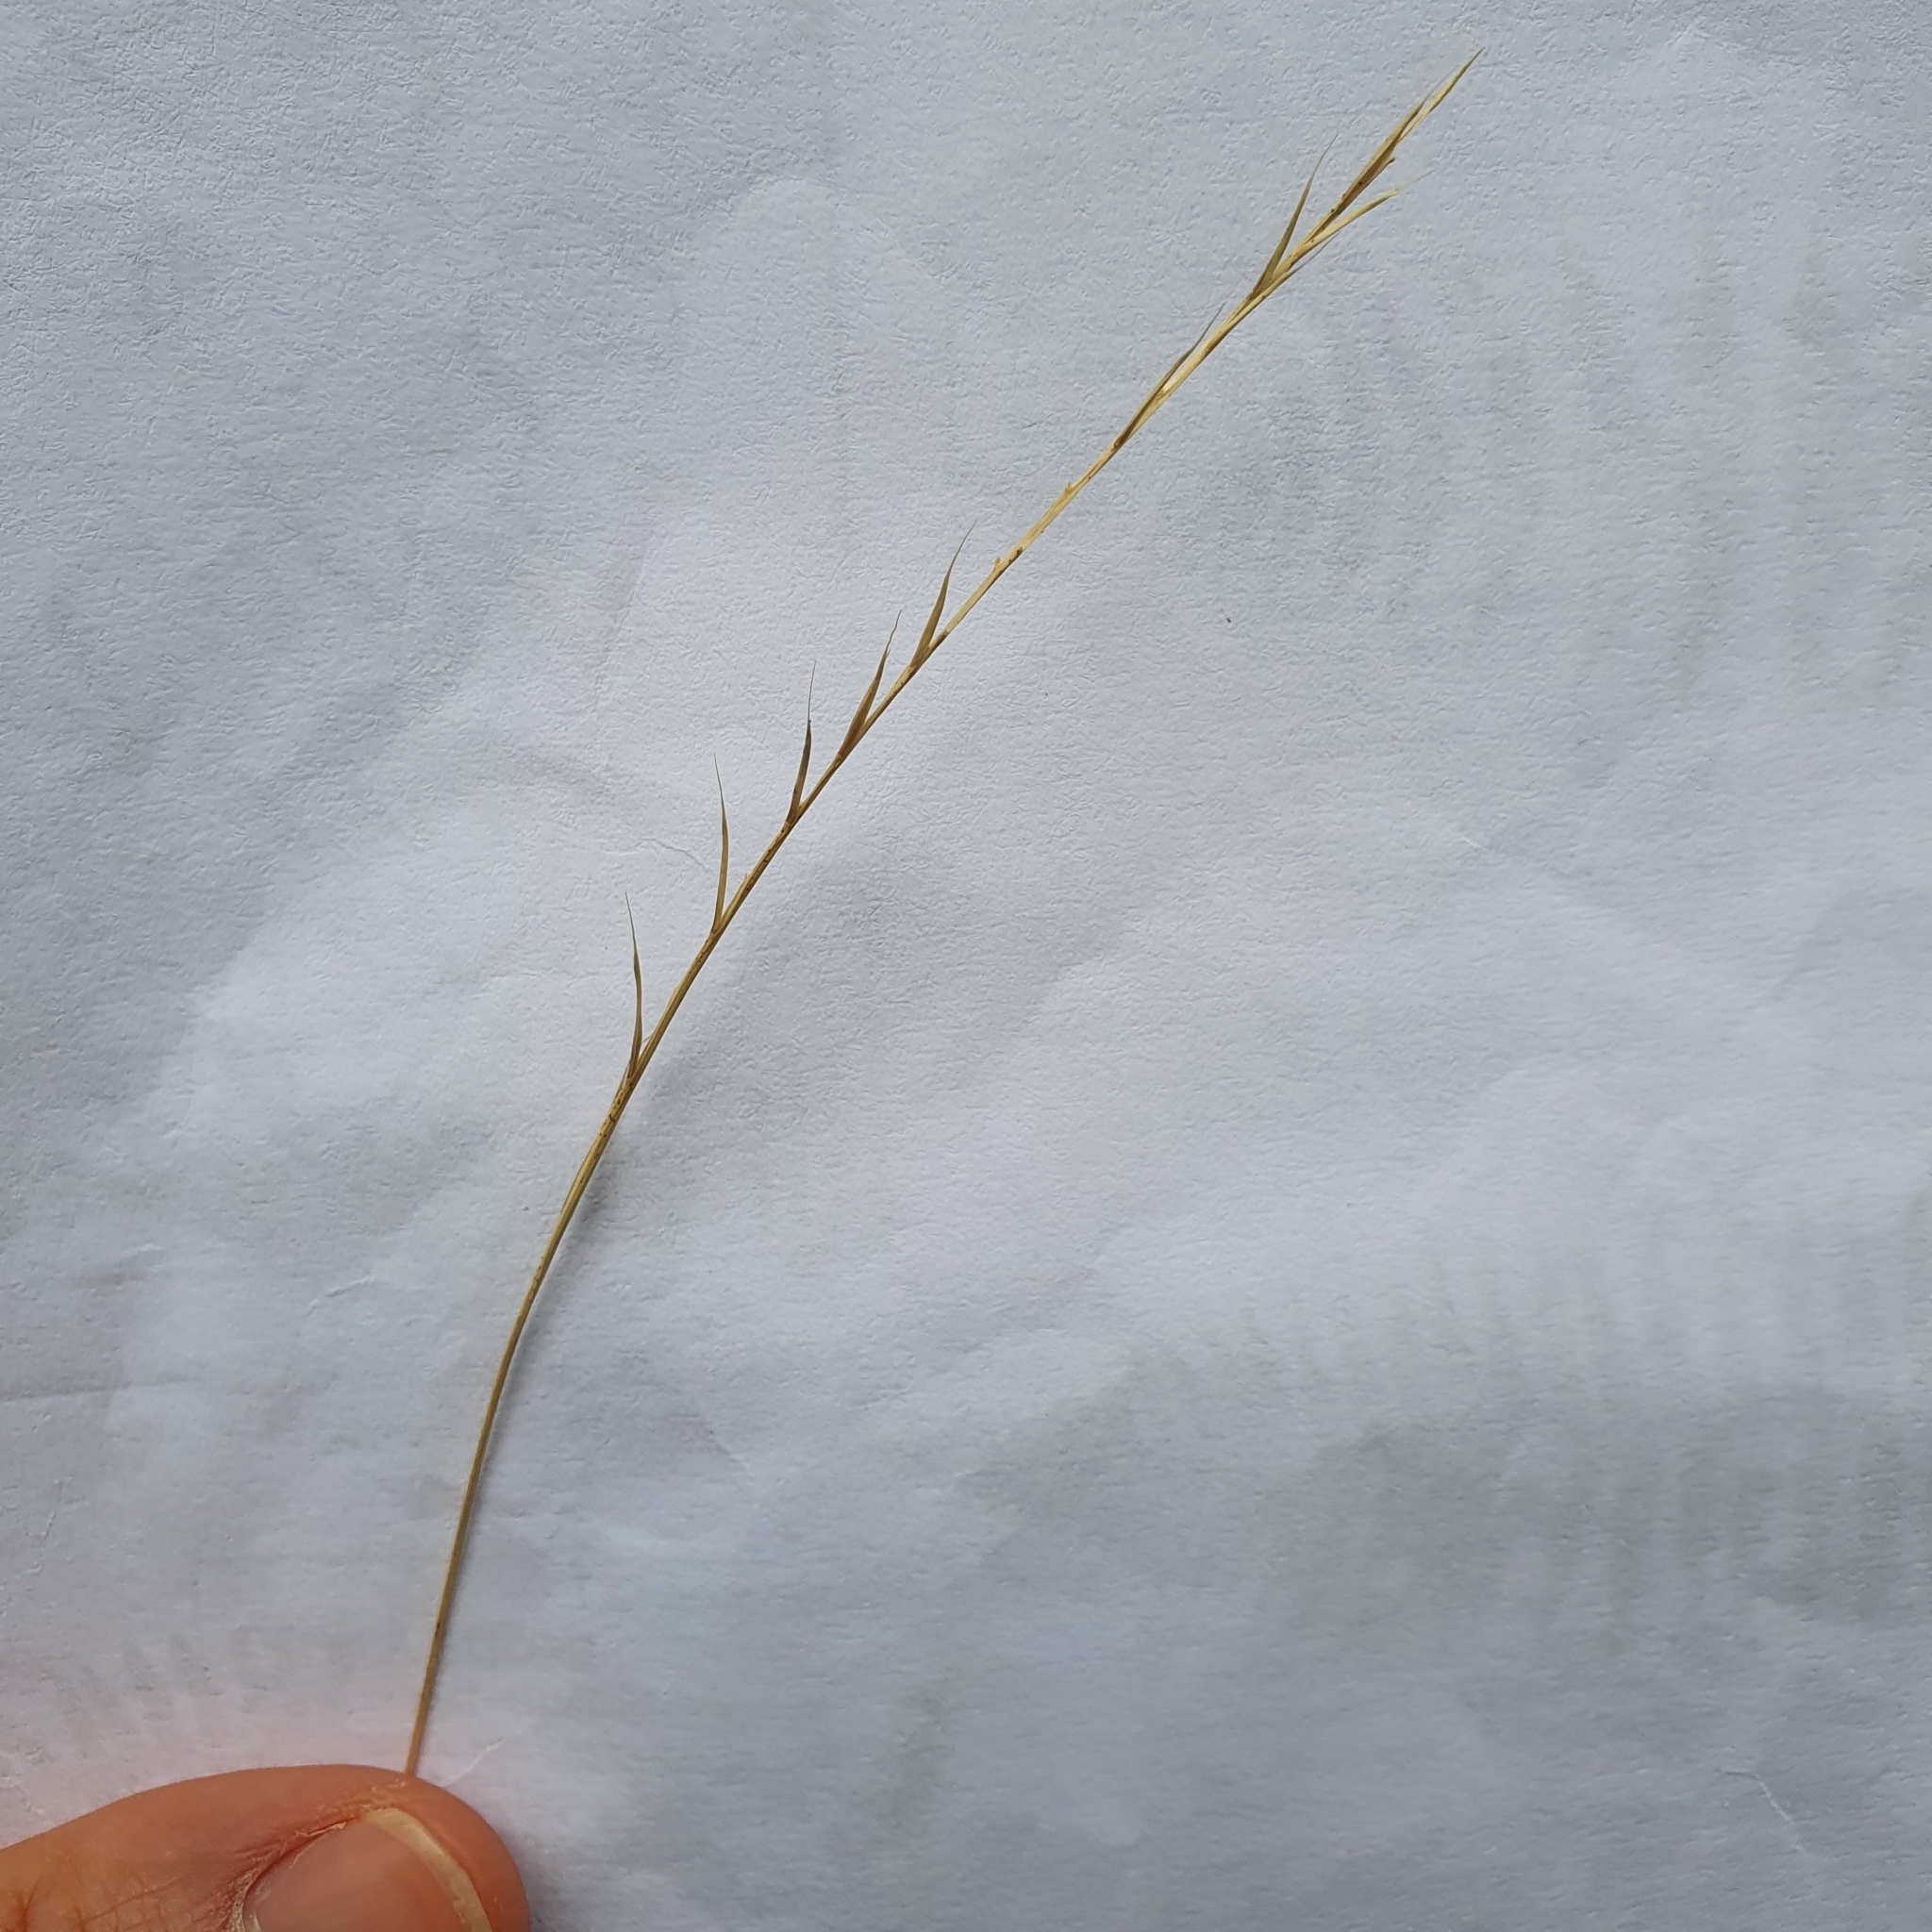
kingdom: Plantae
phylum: Tracheophyta
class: Liliopsida
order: Poales
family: Poaceae
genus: Nardus
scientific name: Nardus stricta
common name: Mat-grass
